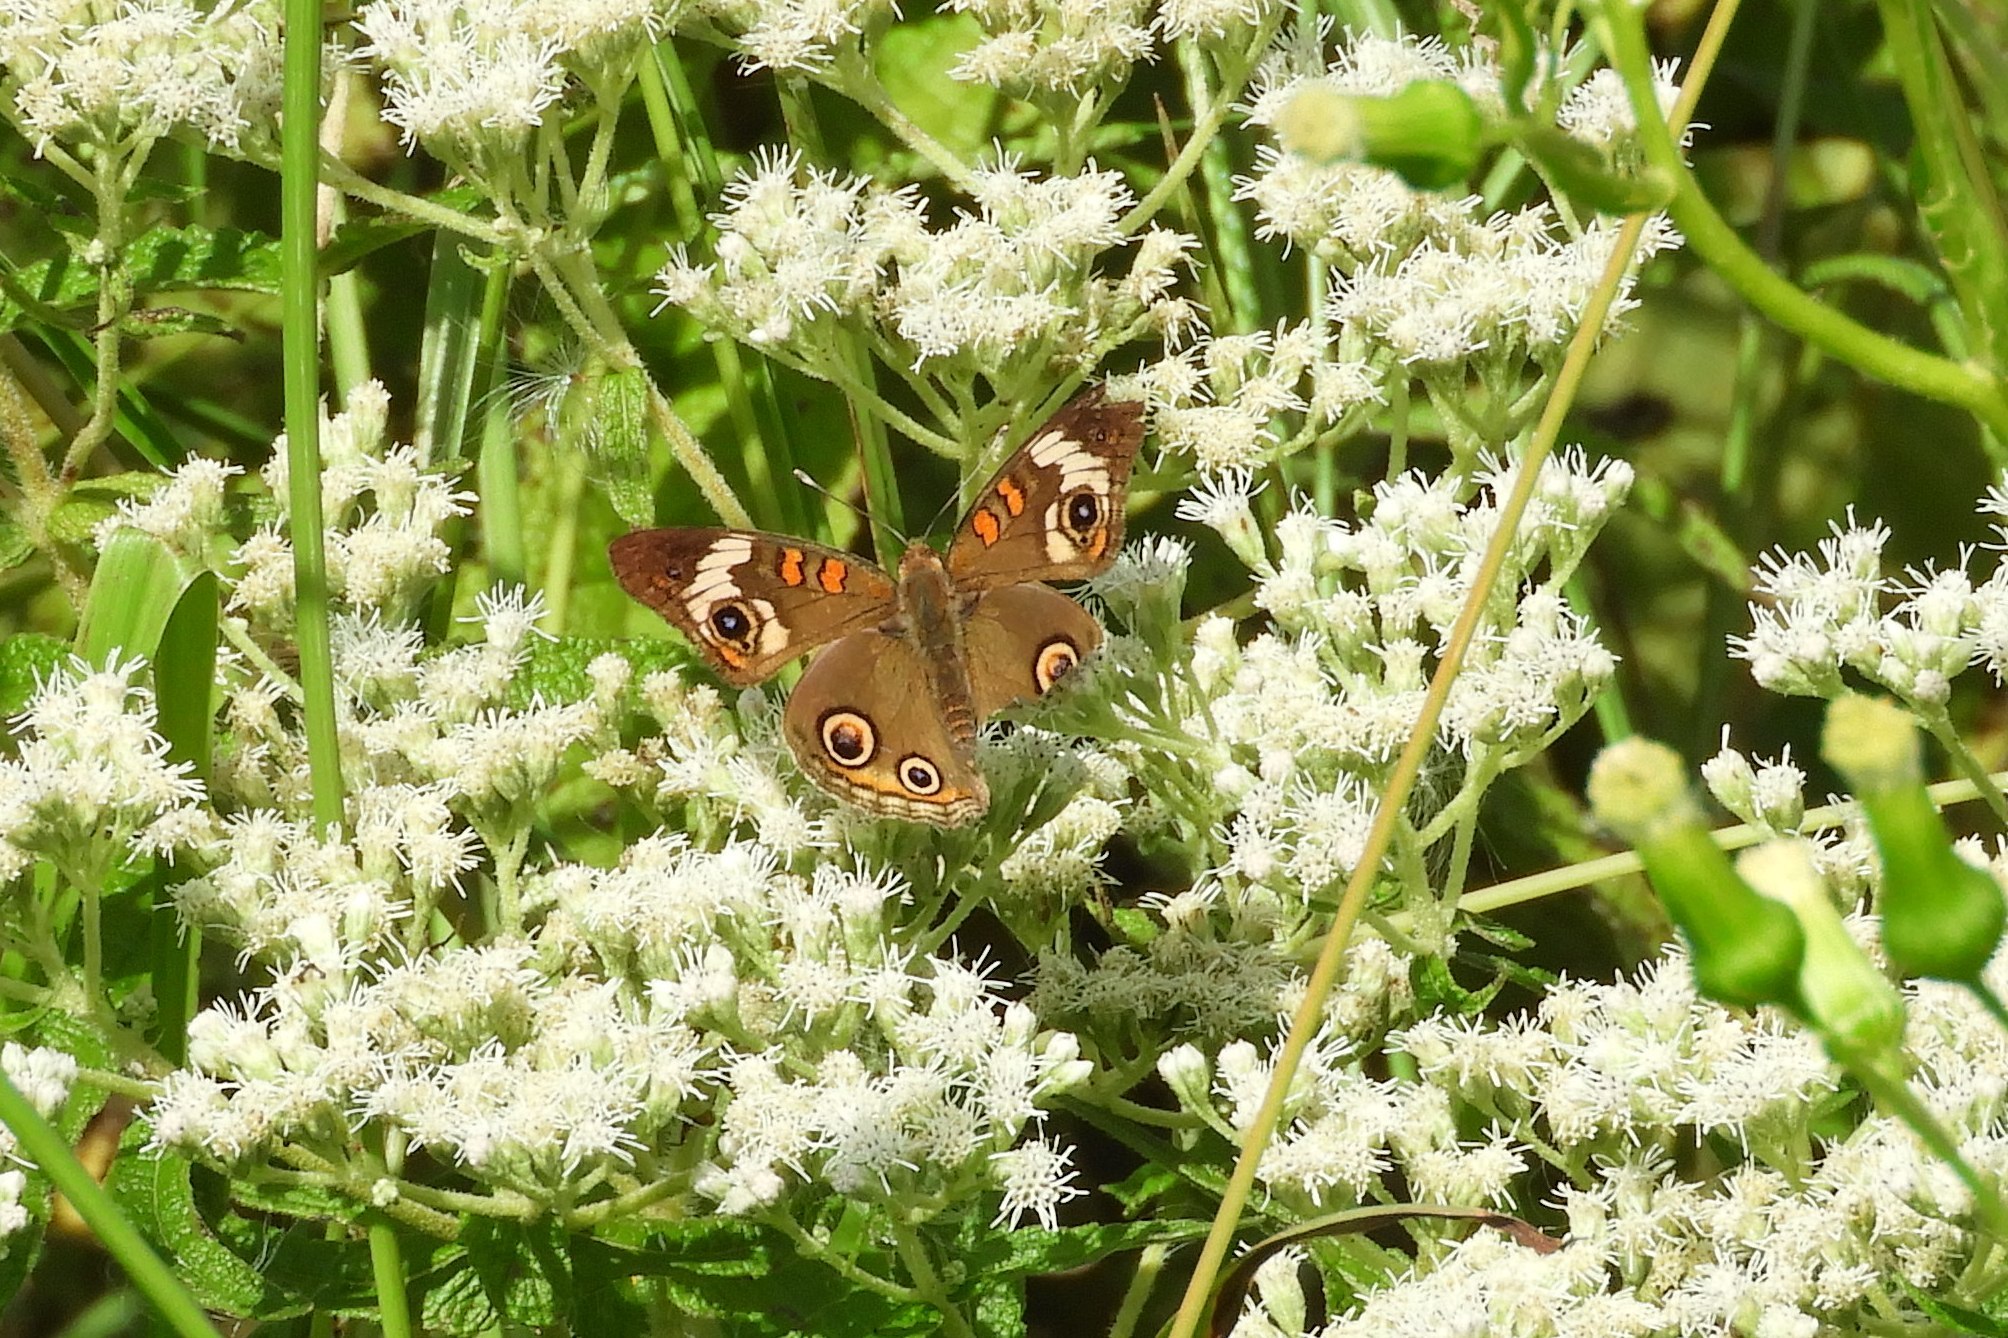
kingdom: Animalia
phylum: Arthropoda
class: Insecta
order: Lepidoptera
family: Nymphalidae
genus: Junonia
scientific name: Junonia coenia
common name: Common buckeye
